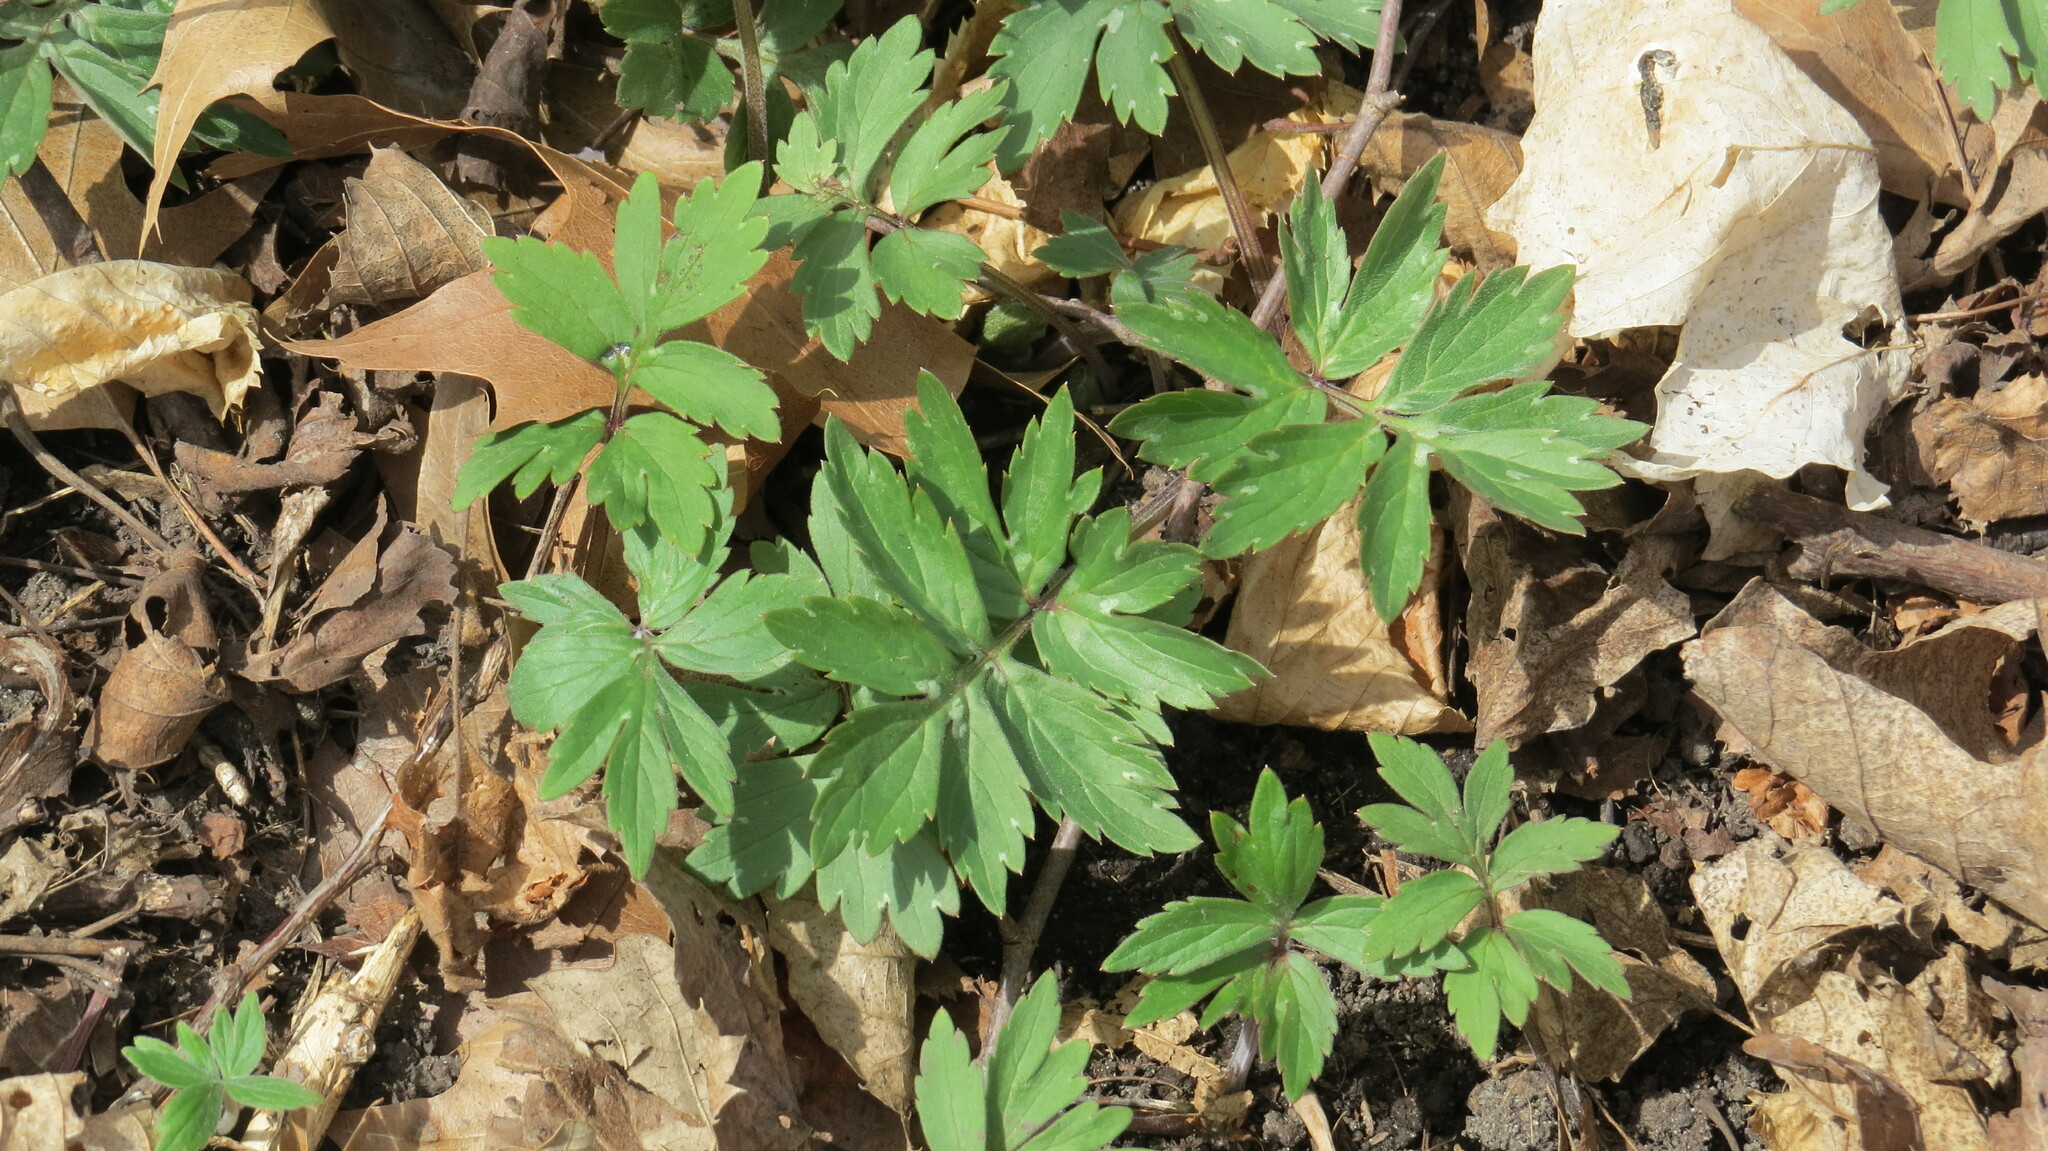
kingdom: Plantae
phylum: Tracheophyta
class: Magnoliopsida
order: Boraginales
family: Hydrophyllaceae
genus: Hydrophyllum
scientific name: Hydrophyllum virginianum
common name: Virginia waterleaf
